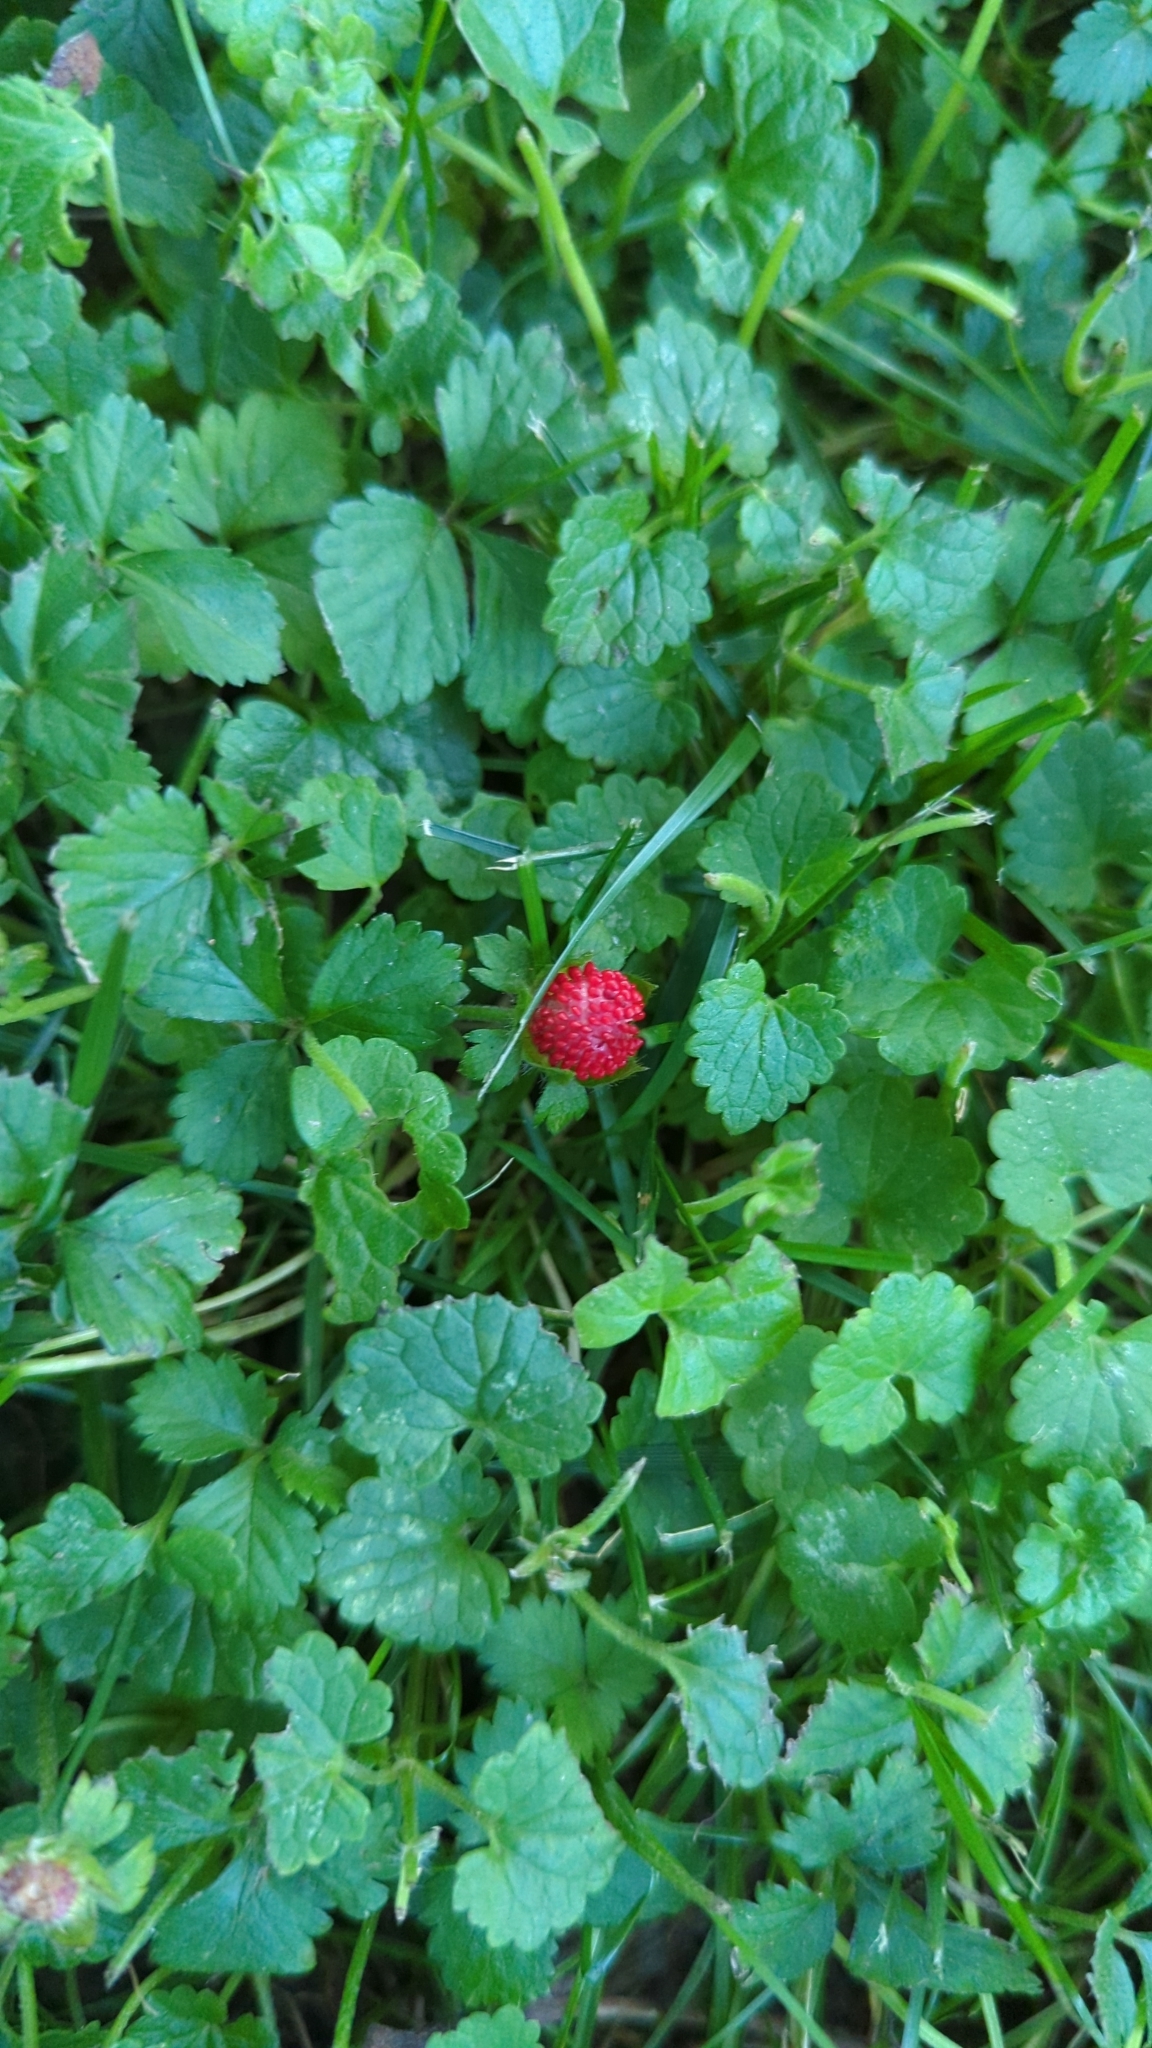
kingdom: Plantae
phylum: Tracheophyta
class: Magnoliopsida
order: Rosales
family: Rosaceae
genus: Potentilla
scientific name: Potentilla indica
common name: Yellow-flowered strawberry
